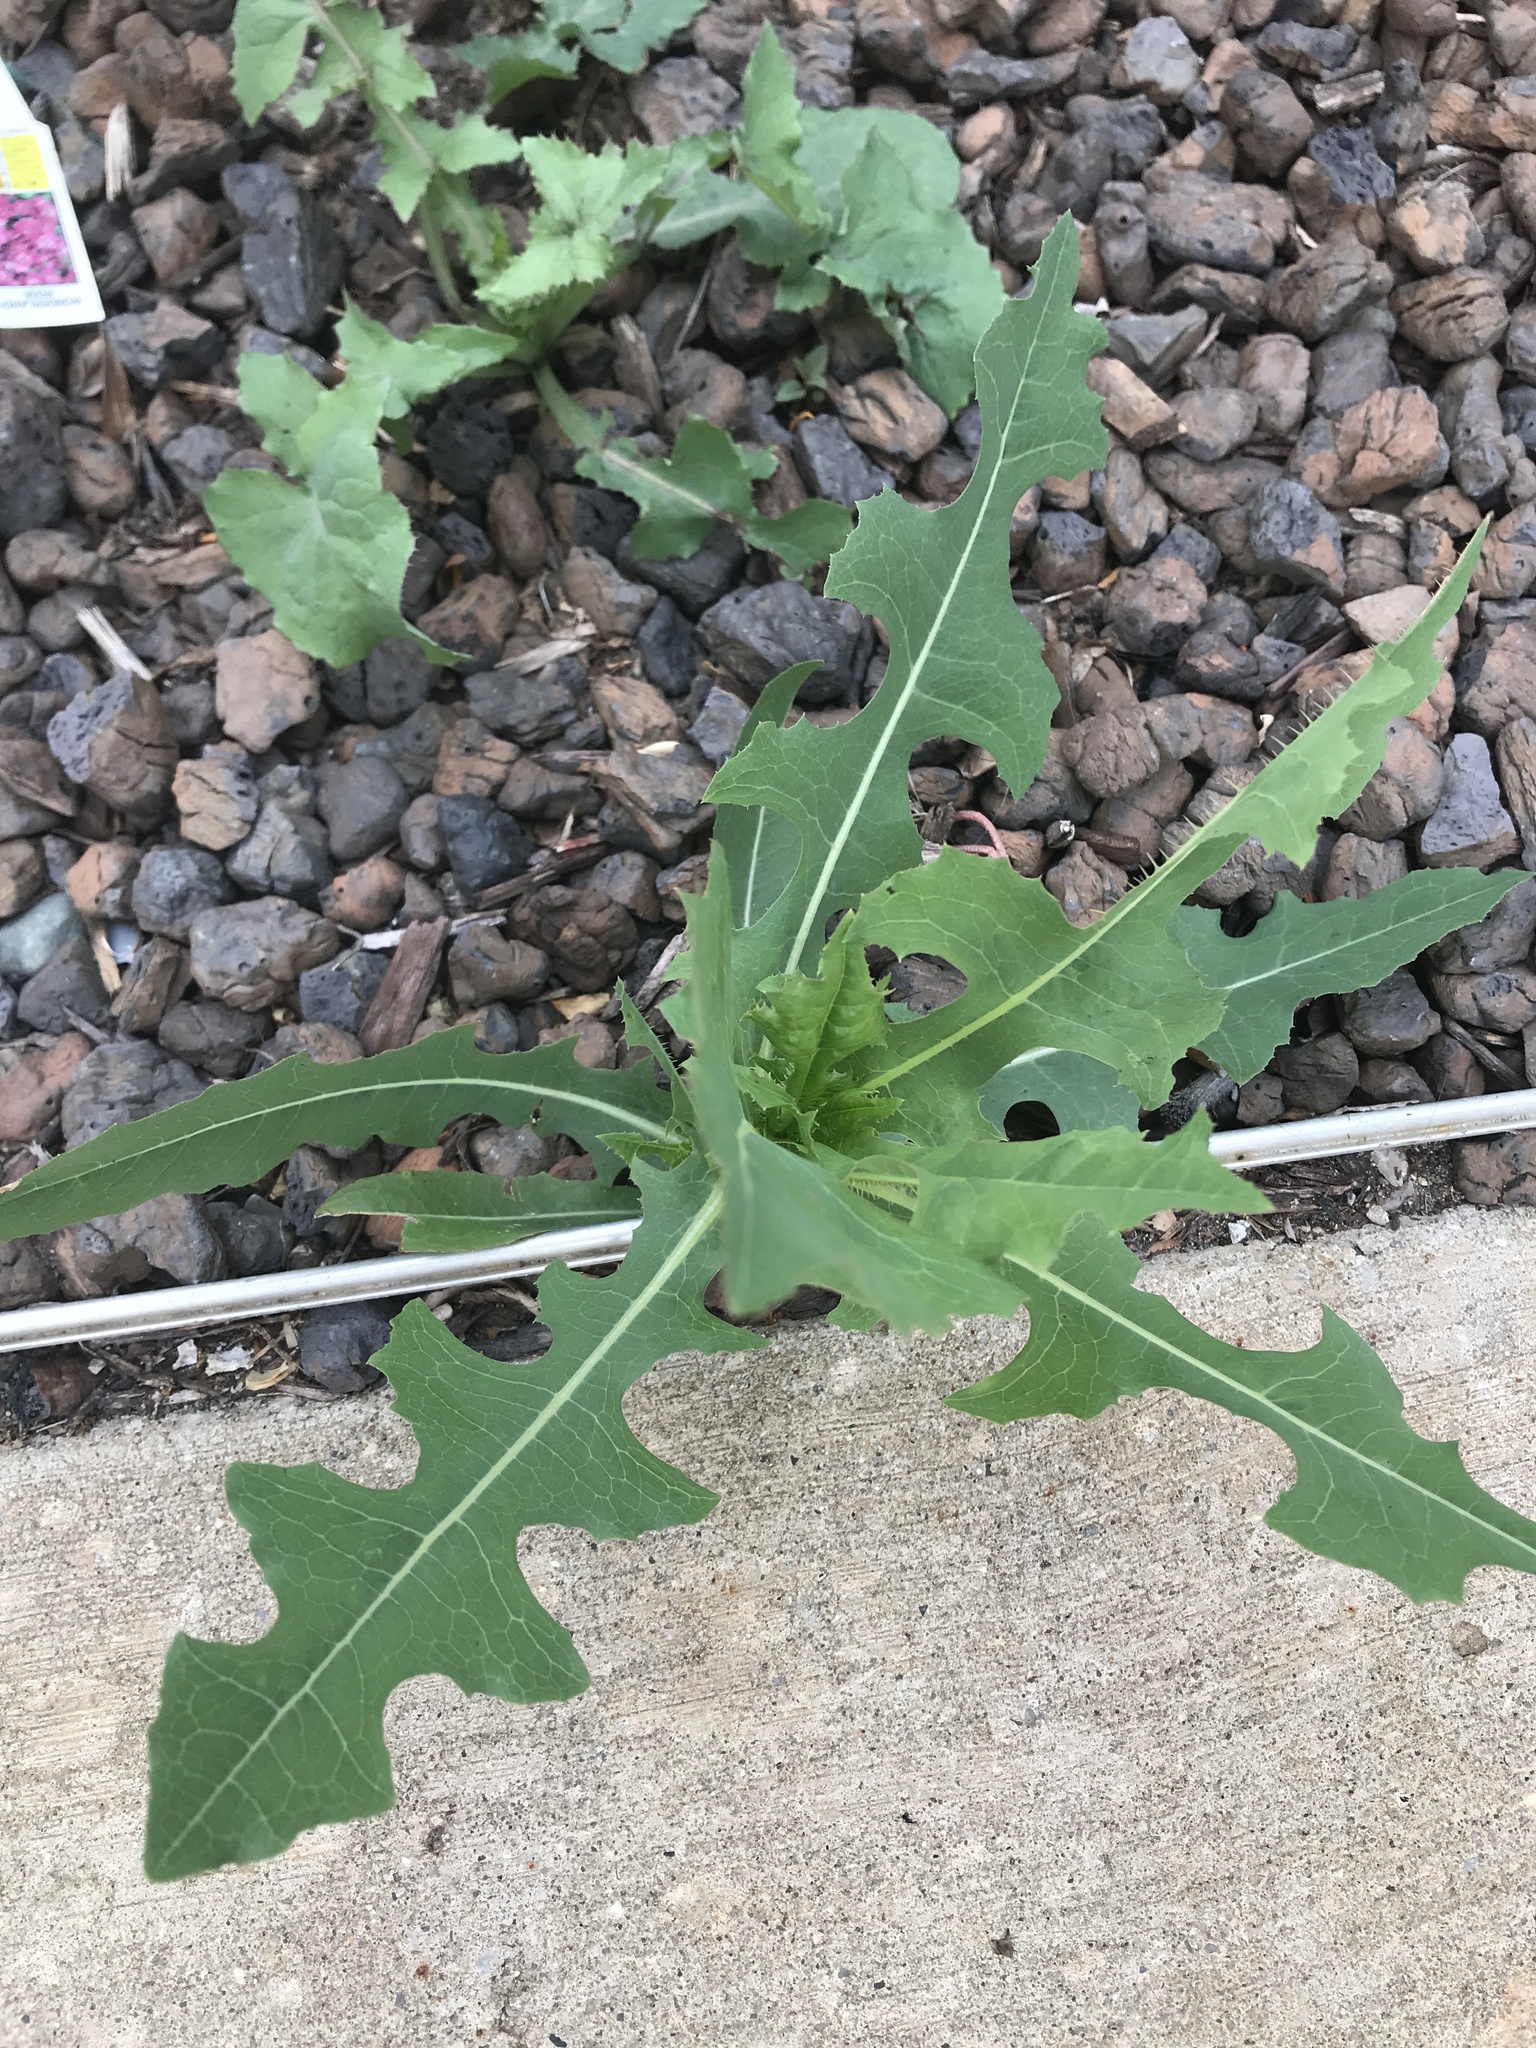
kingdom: Plantae
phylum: Tracheophyta
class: Magnoliopsida
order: Asterales
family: Asteraceae
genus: Lactuca
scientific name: Lactuca serriola
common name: Prickly lettuce
